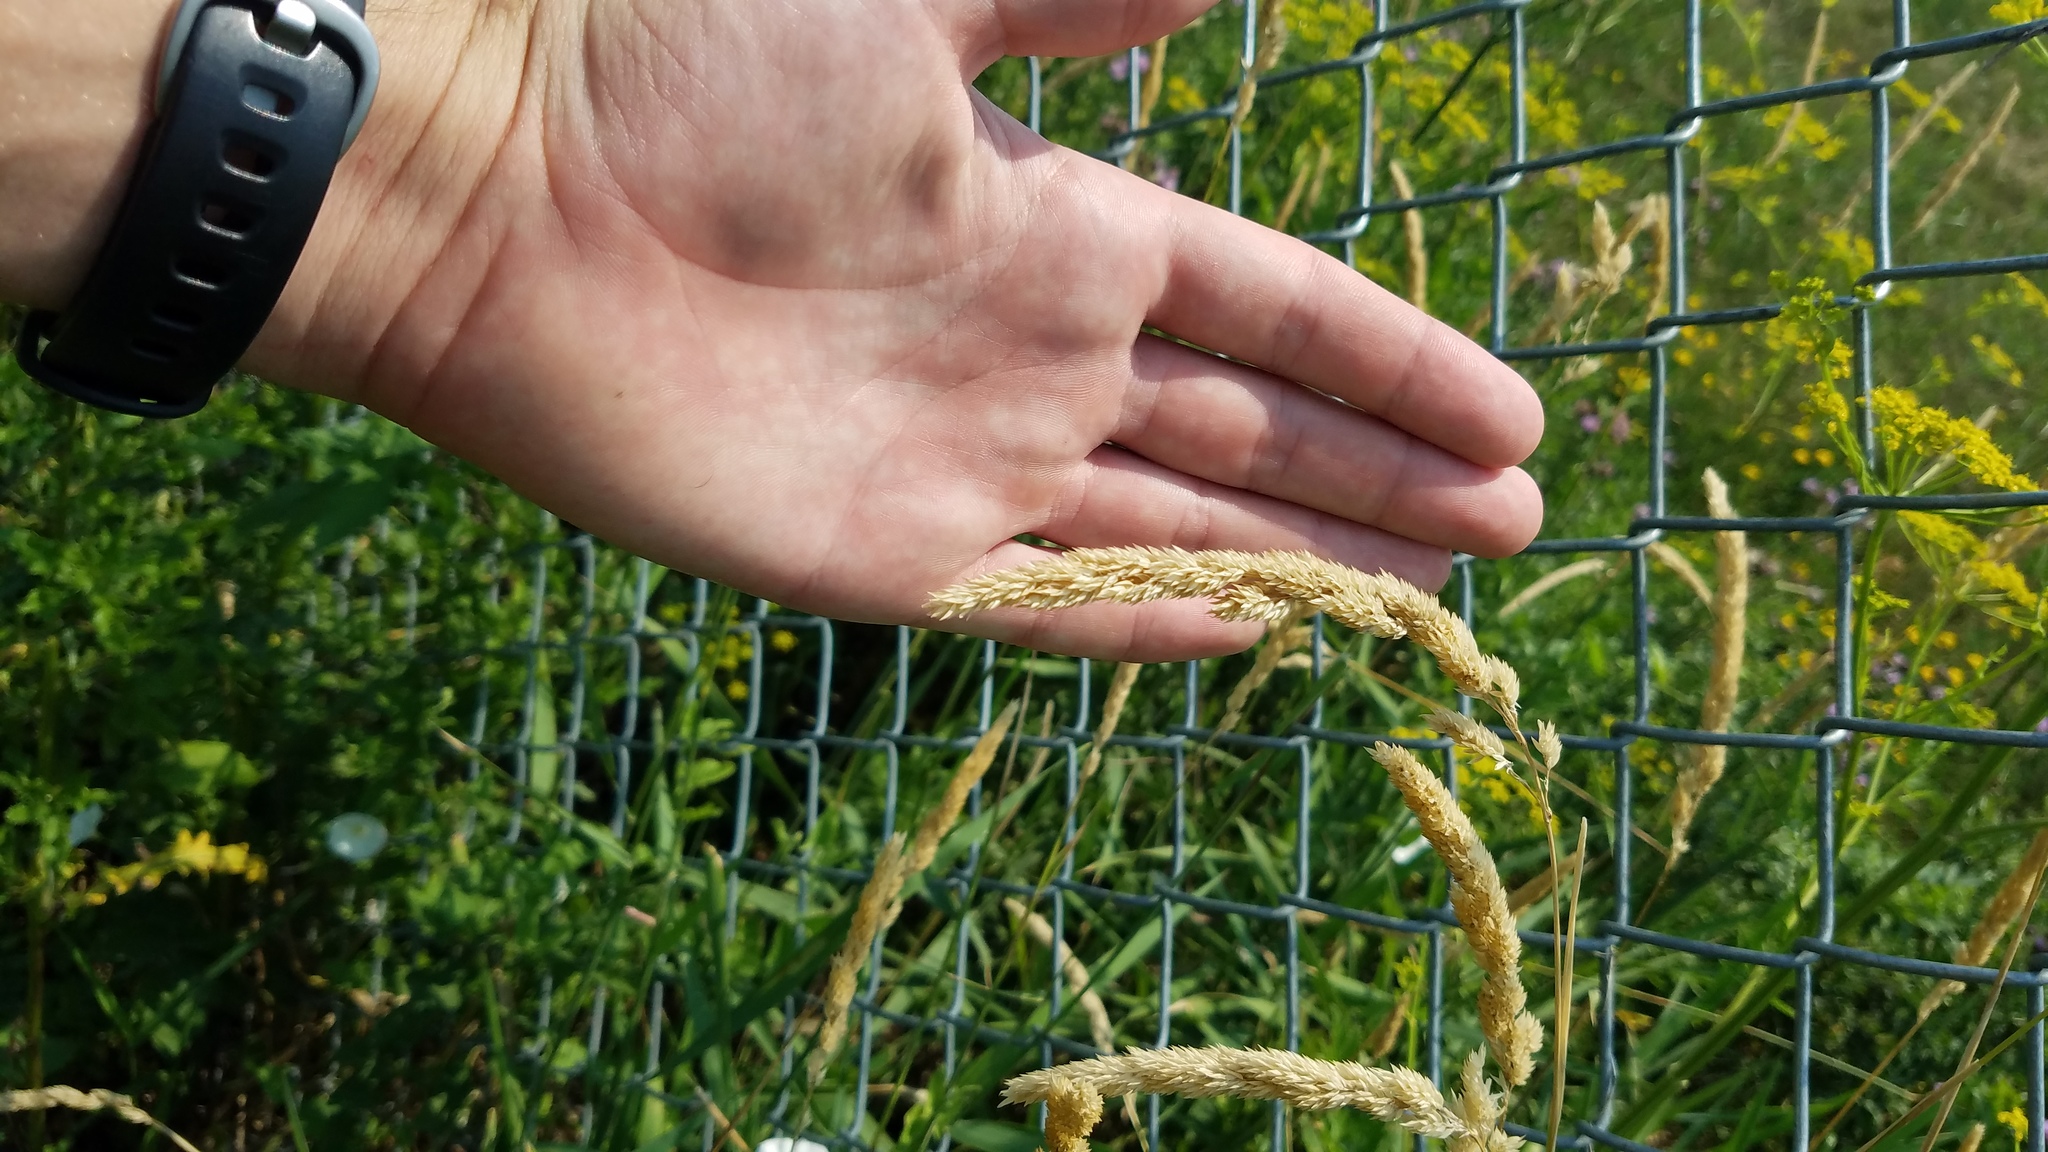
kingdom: Plantae
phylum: Tracheophyta
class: Liliopsida
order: Poales
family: Poaceae
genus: Phalaris
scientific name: Phalaris arundinacea
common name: Reed canary-grass
